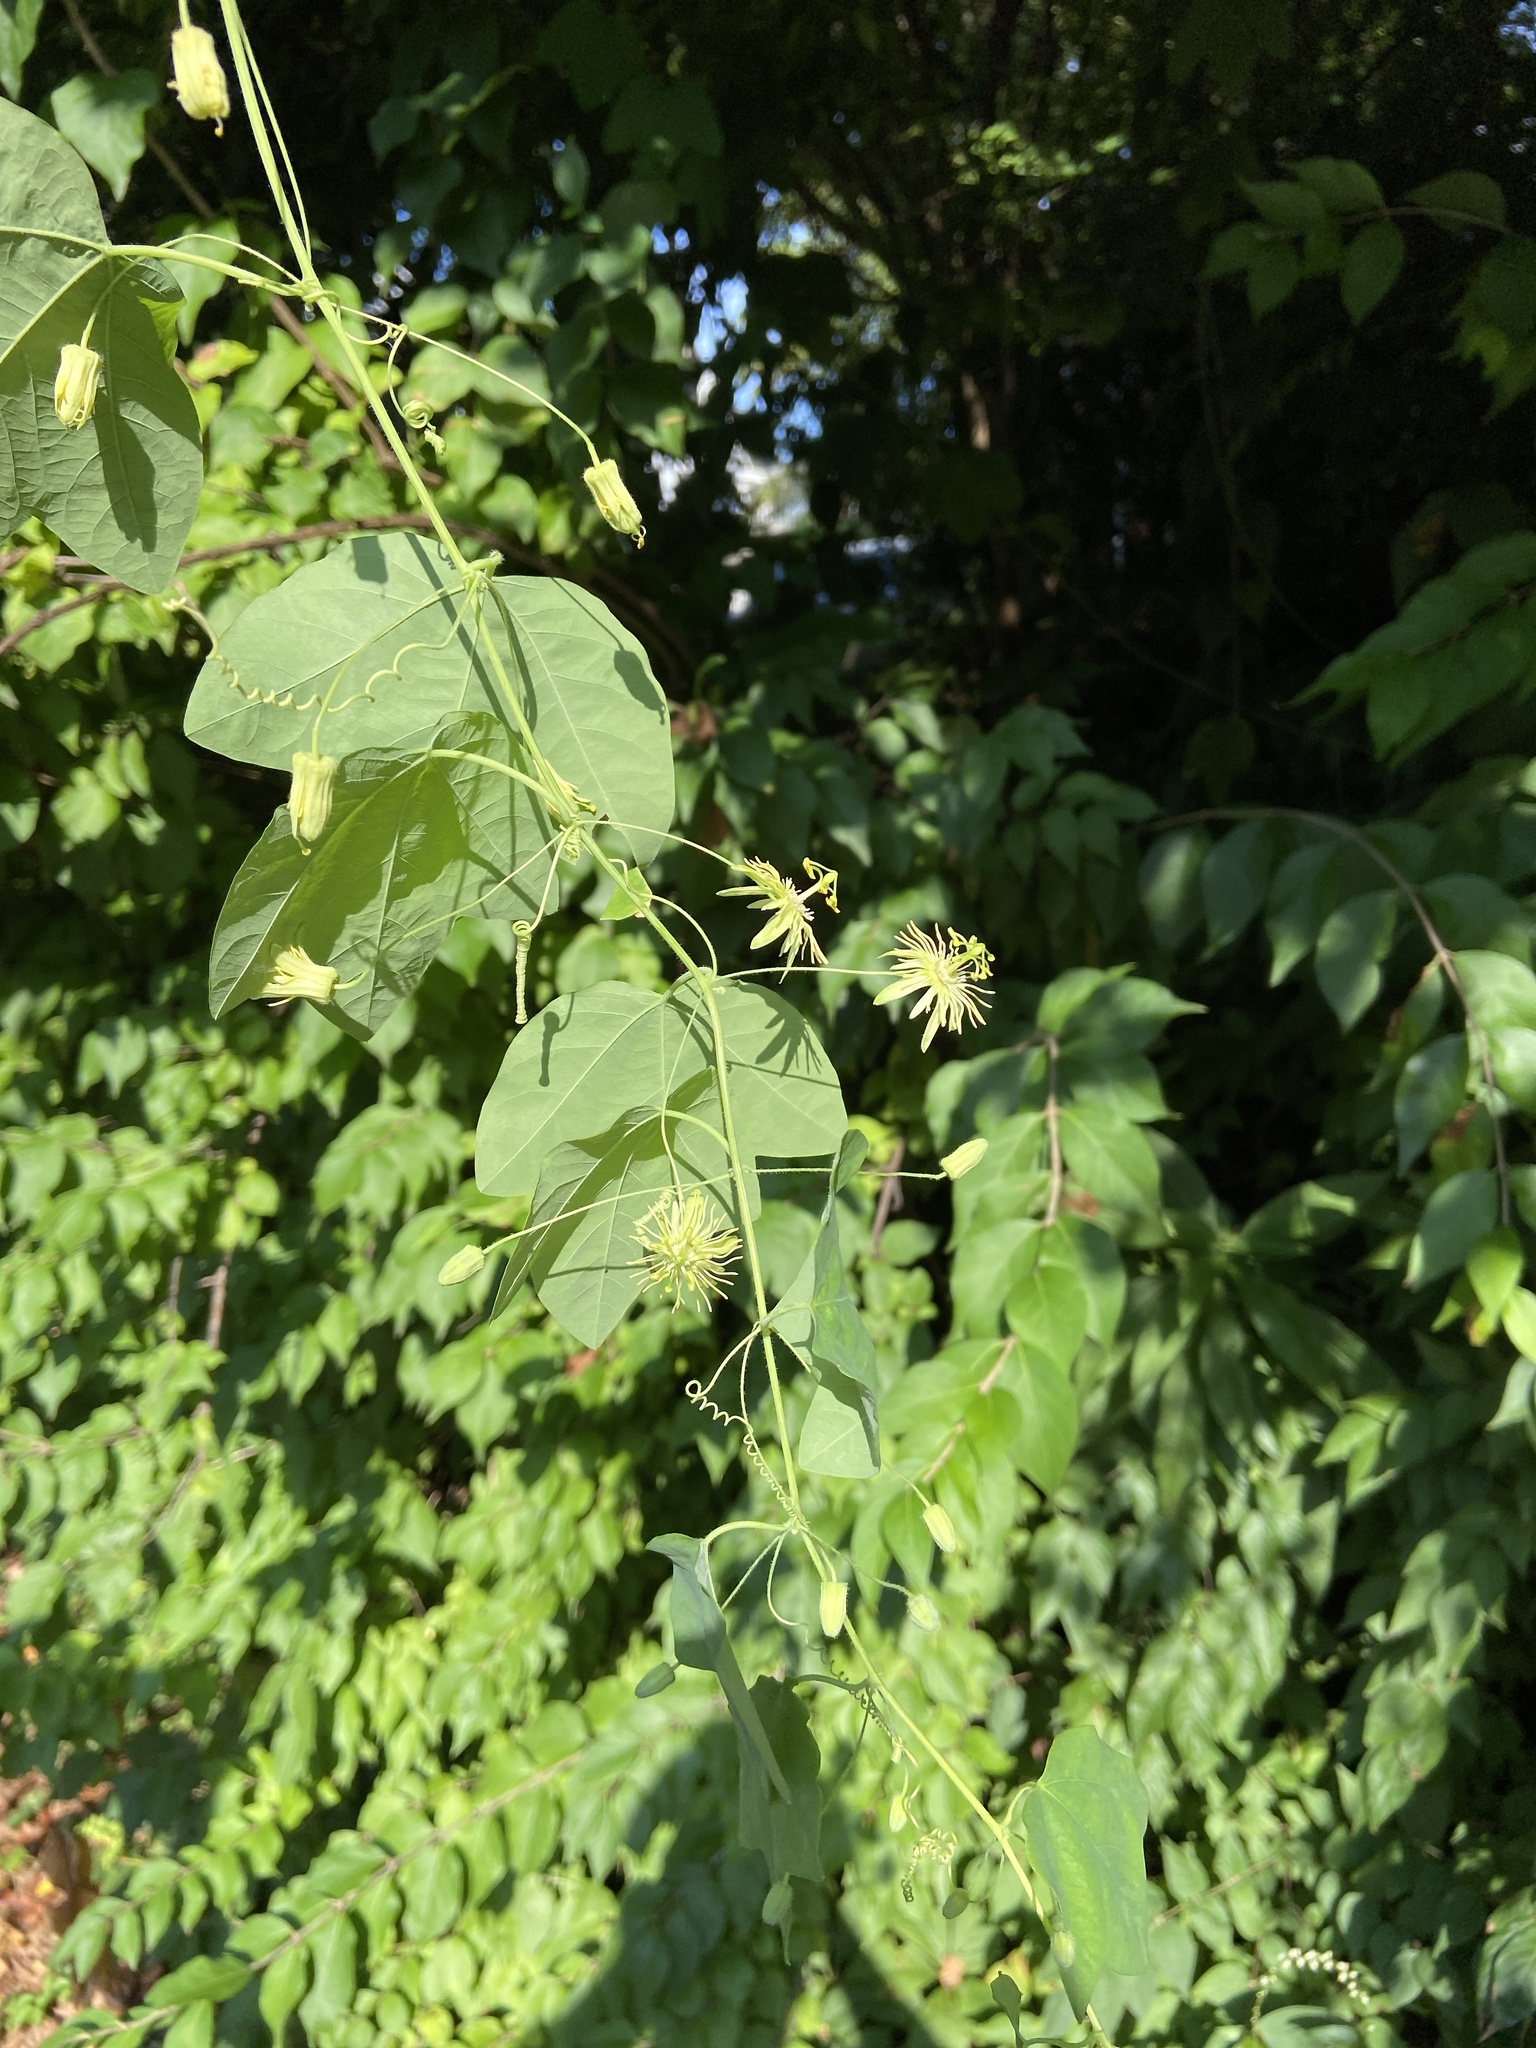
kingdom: Plantae
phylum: Tracheophyta
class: Magnoliopsida
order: Malpighiales
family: Passifloraceae
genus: Passiflora
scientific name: Passiflora lutea
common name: Yellow passionflower
